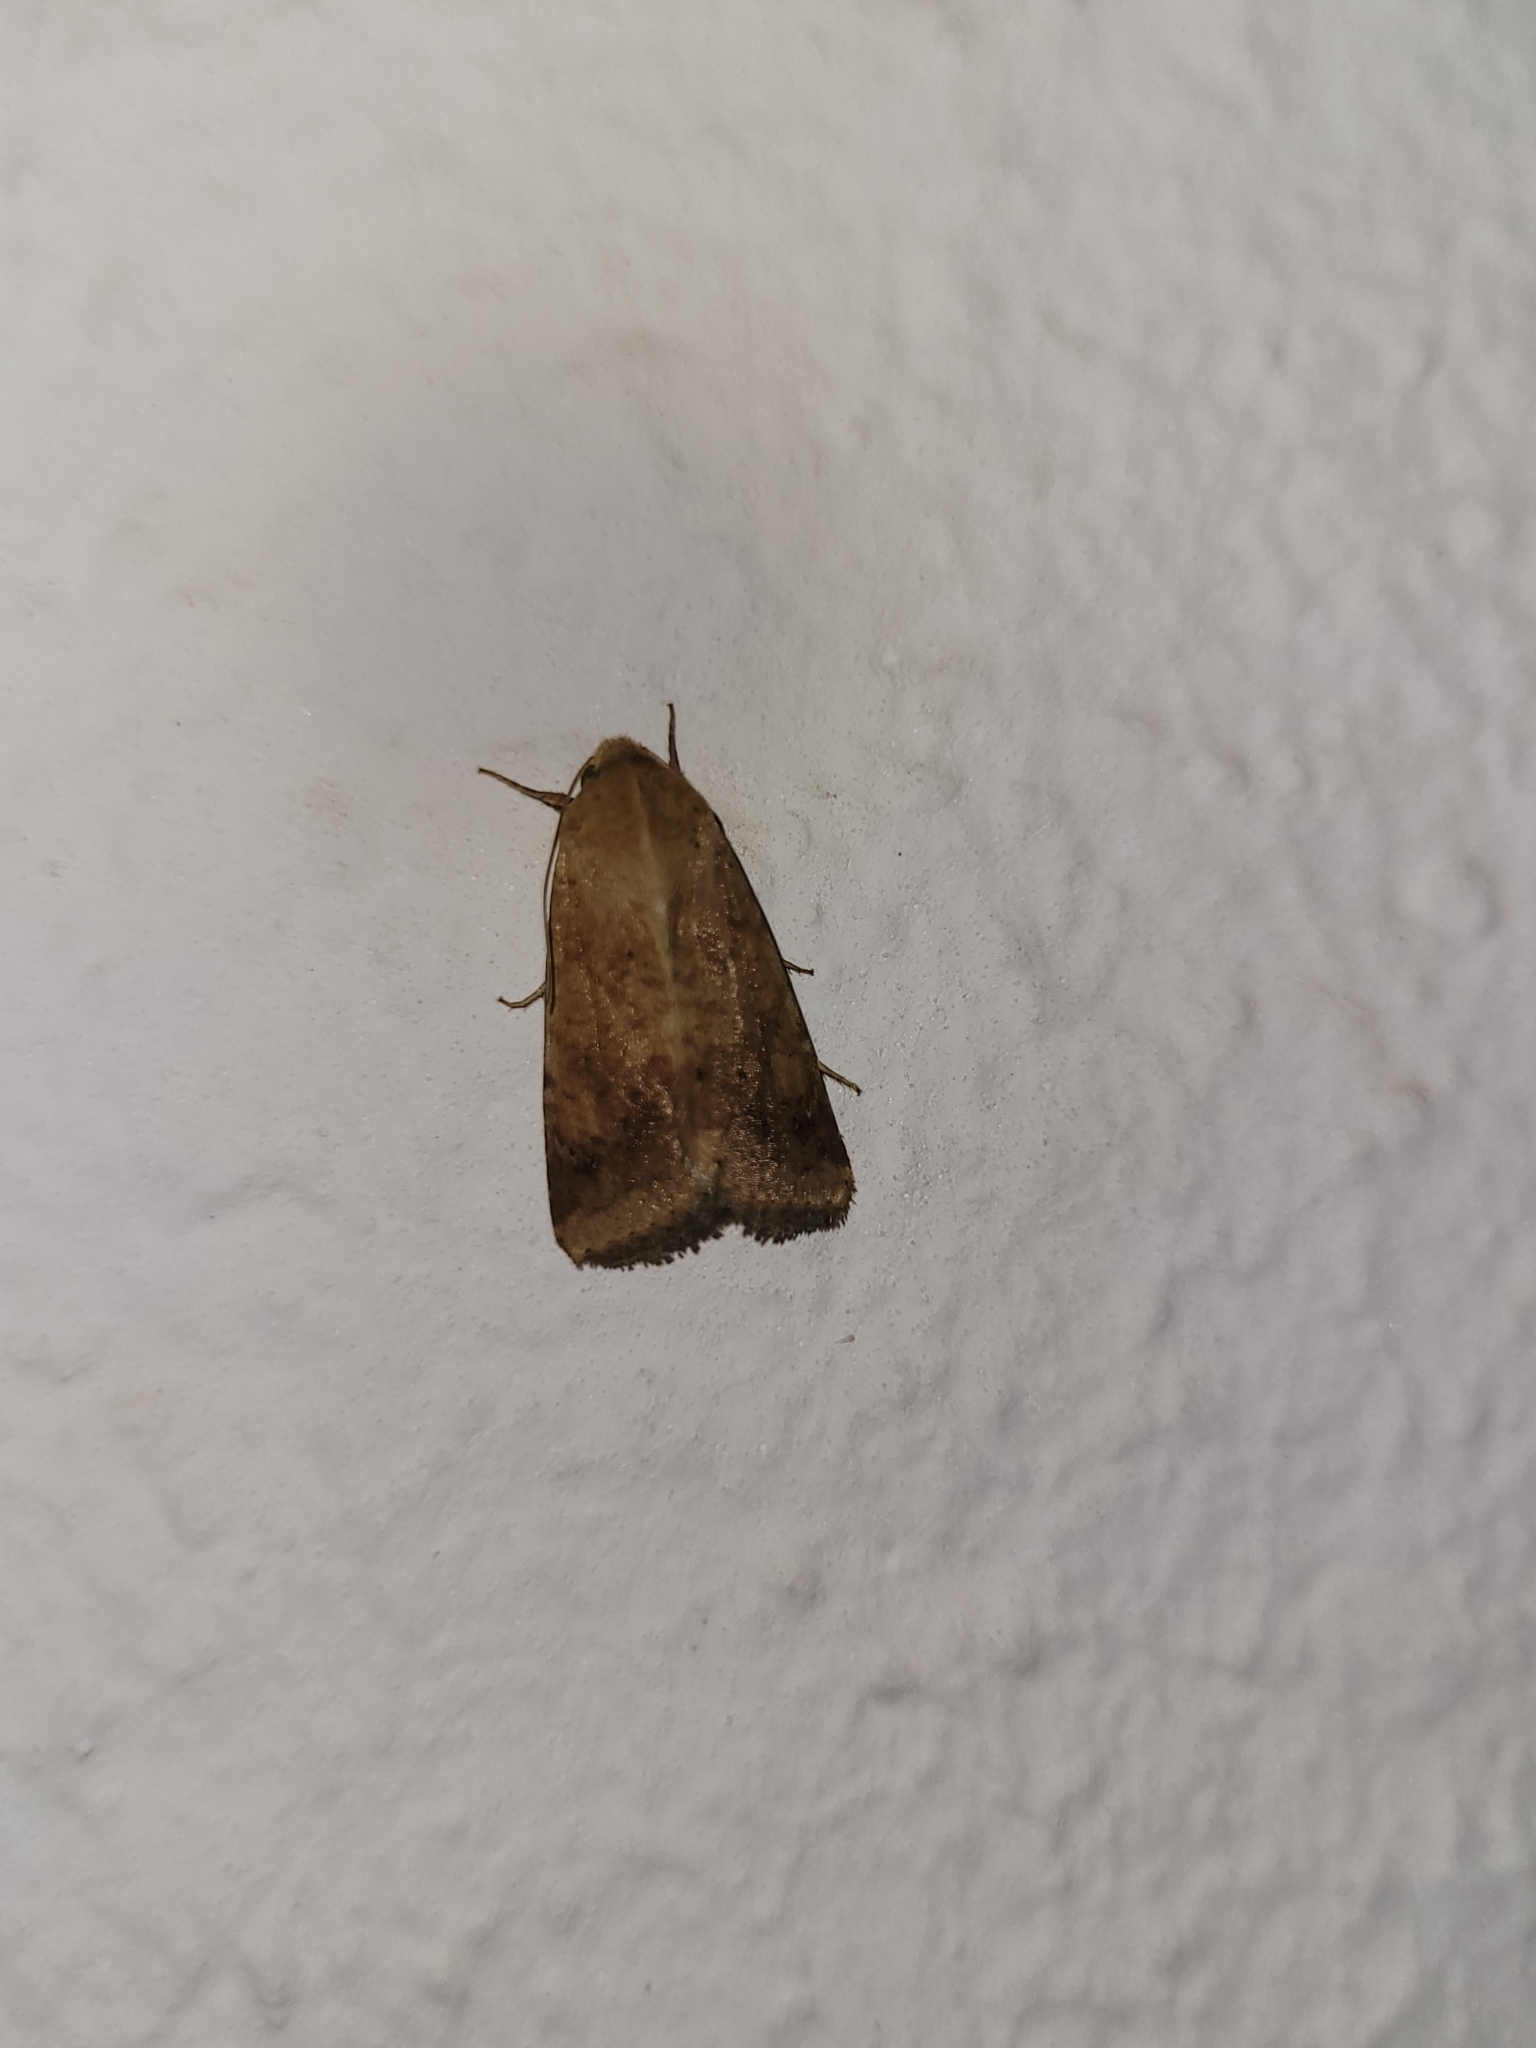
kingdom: Animalia
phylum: Arthropoda
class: Insecta
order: Lepidoptera
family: Noctuidae
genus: Helicoverpa
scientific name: Helicoverpa armigera
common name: Cotton bollworm
